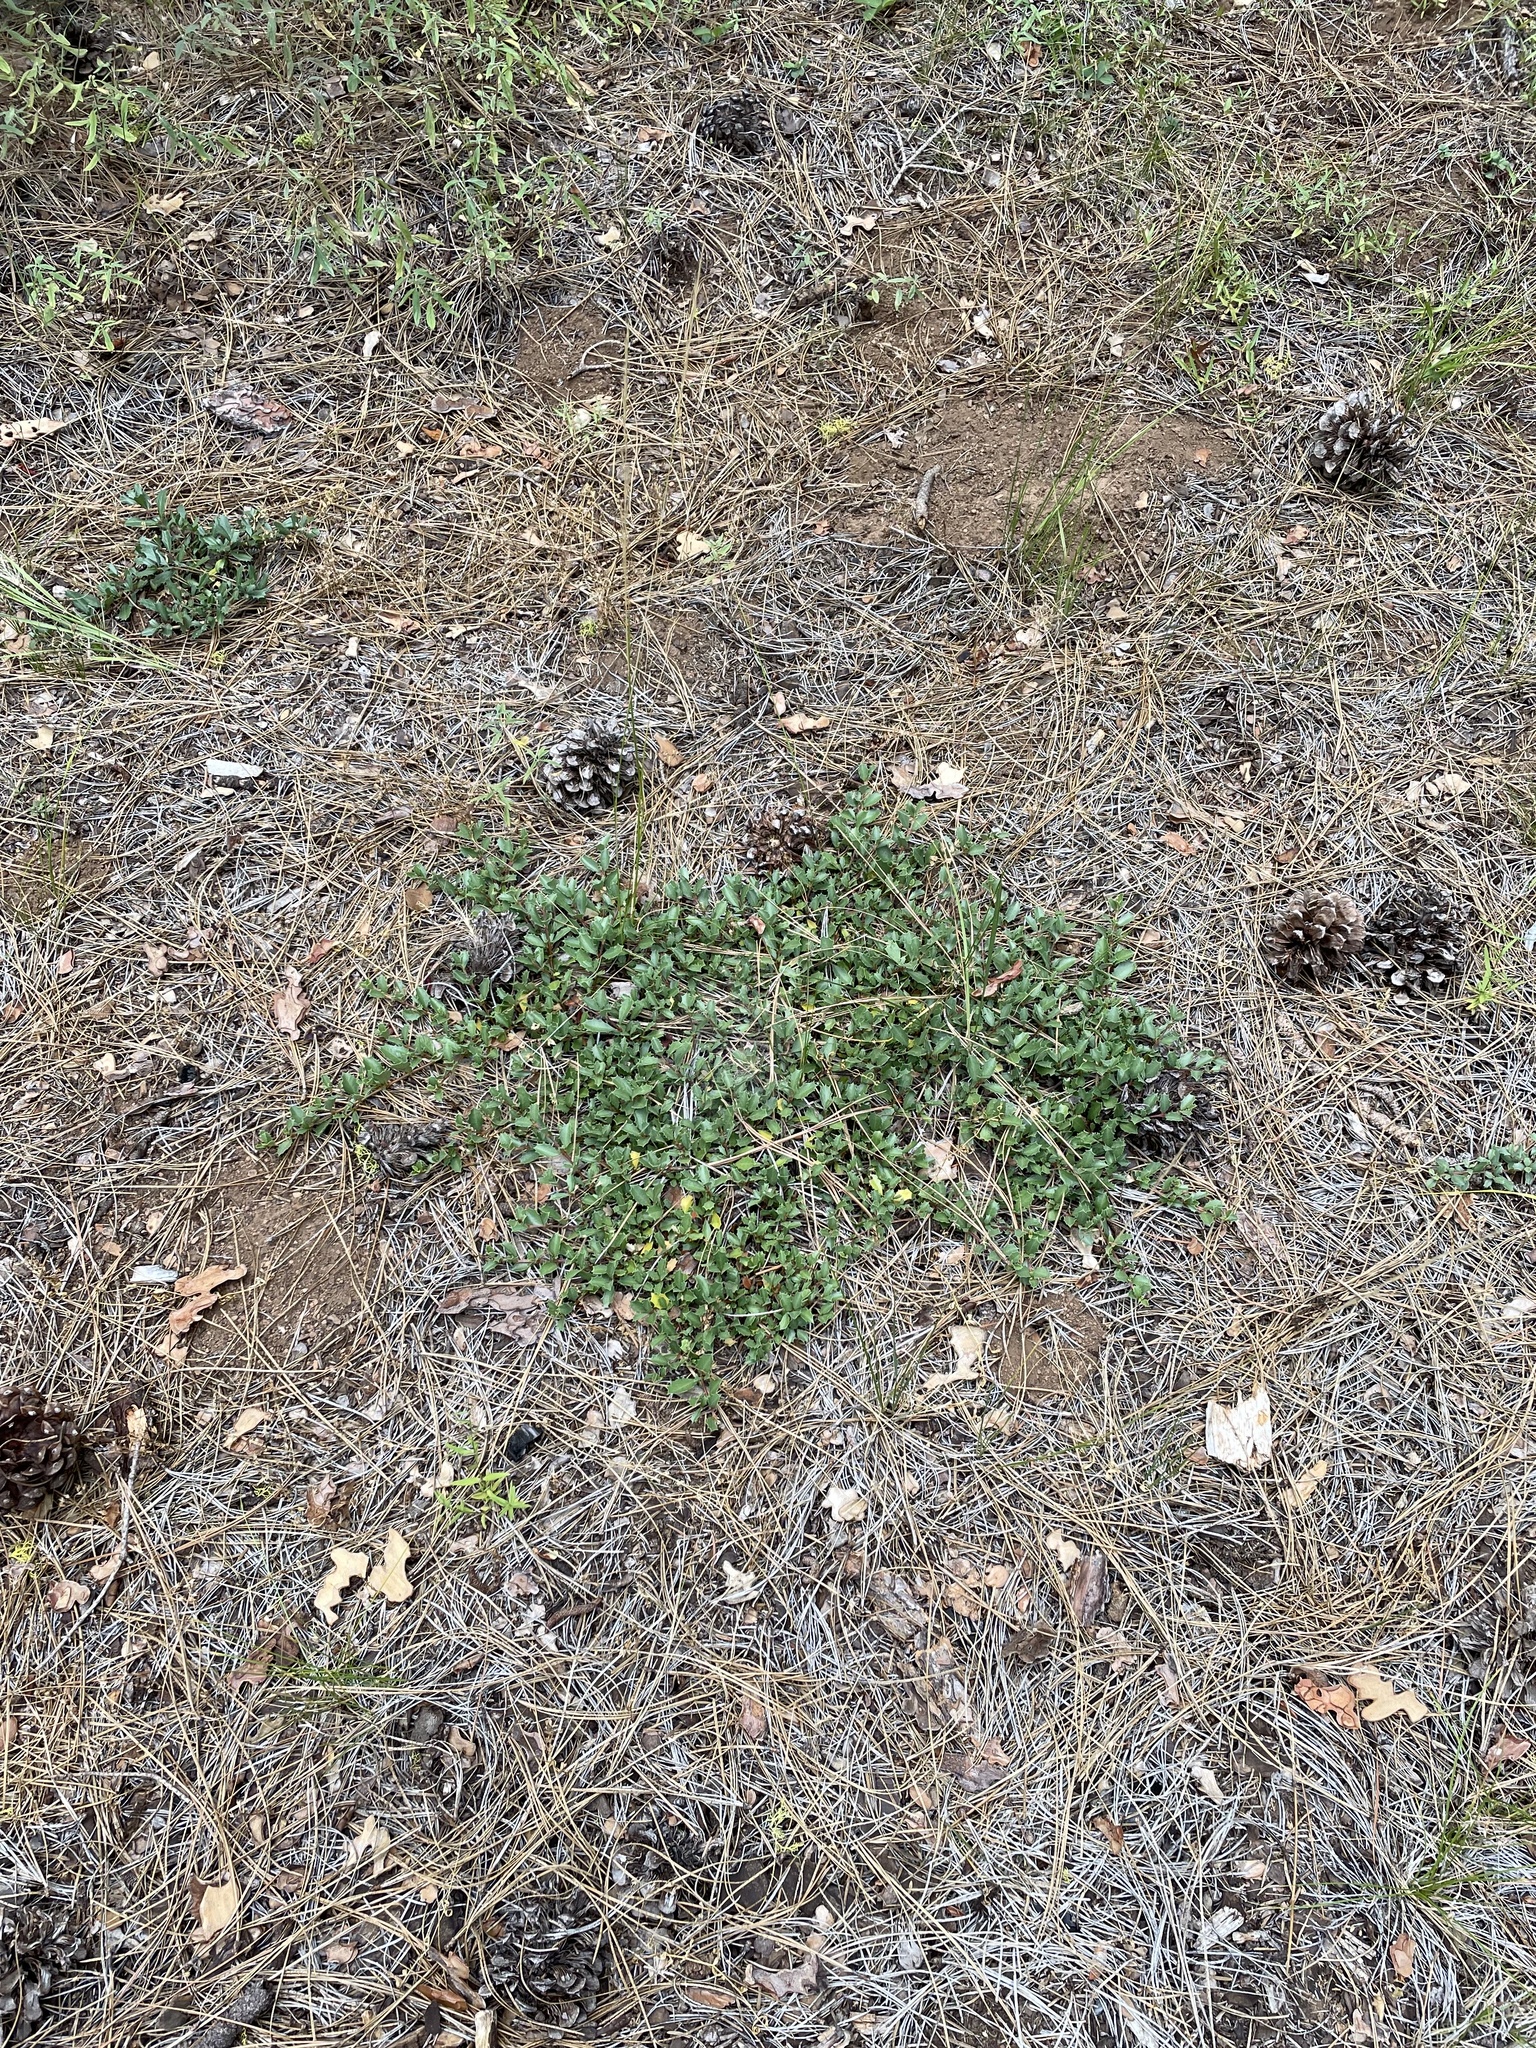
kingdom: Plantae
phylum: Tracheophyta
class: Magnoliopsida
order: Rosales
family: Rhamnaceae
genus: Ceanothus
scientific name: Ceanothus prostratus
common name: Mahala-mat
